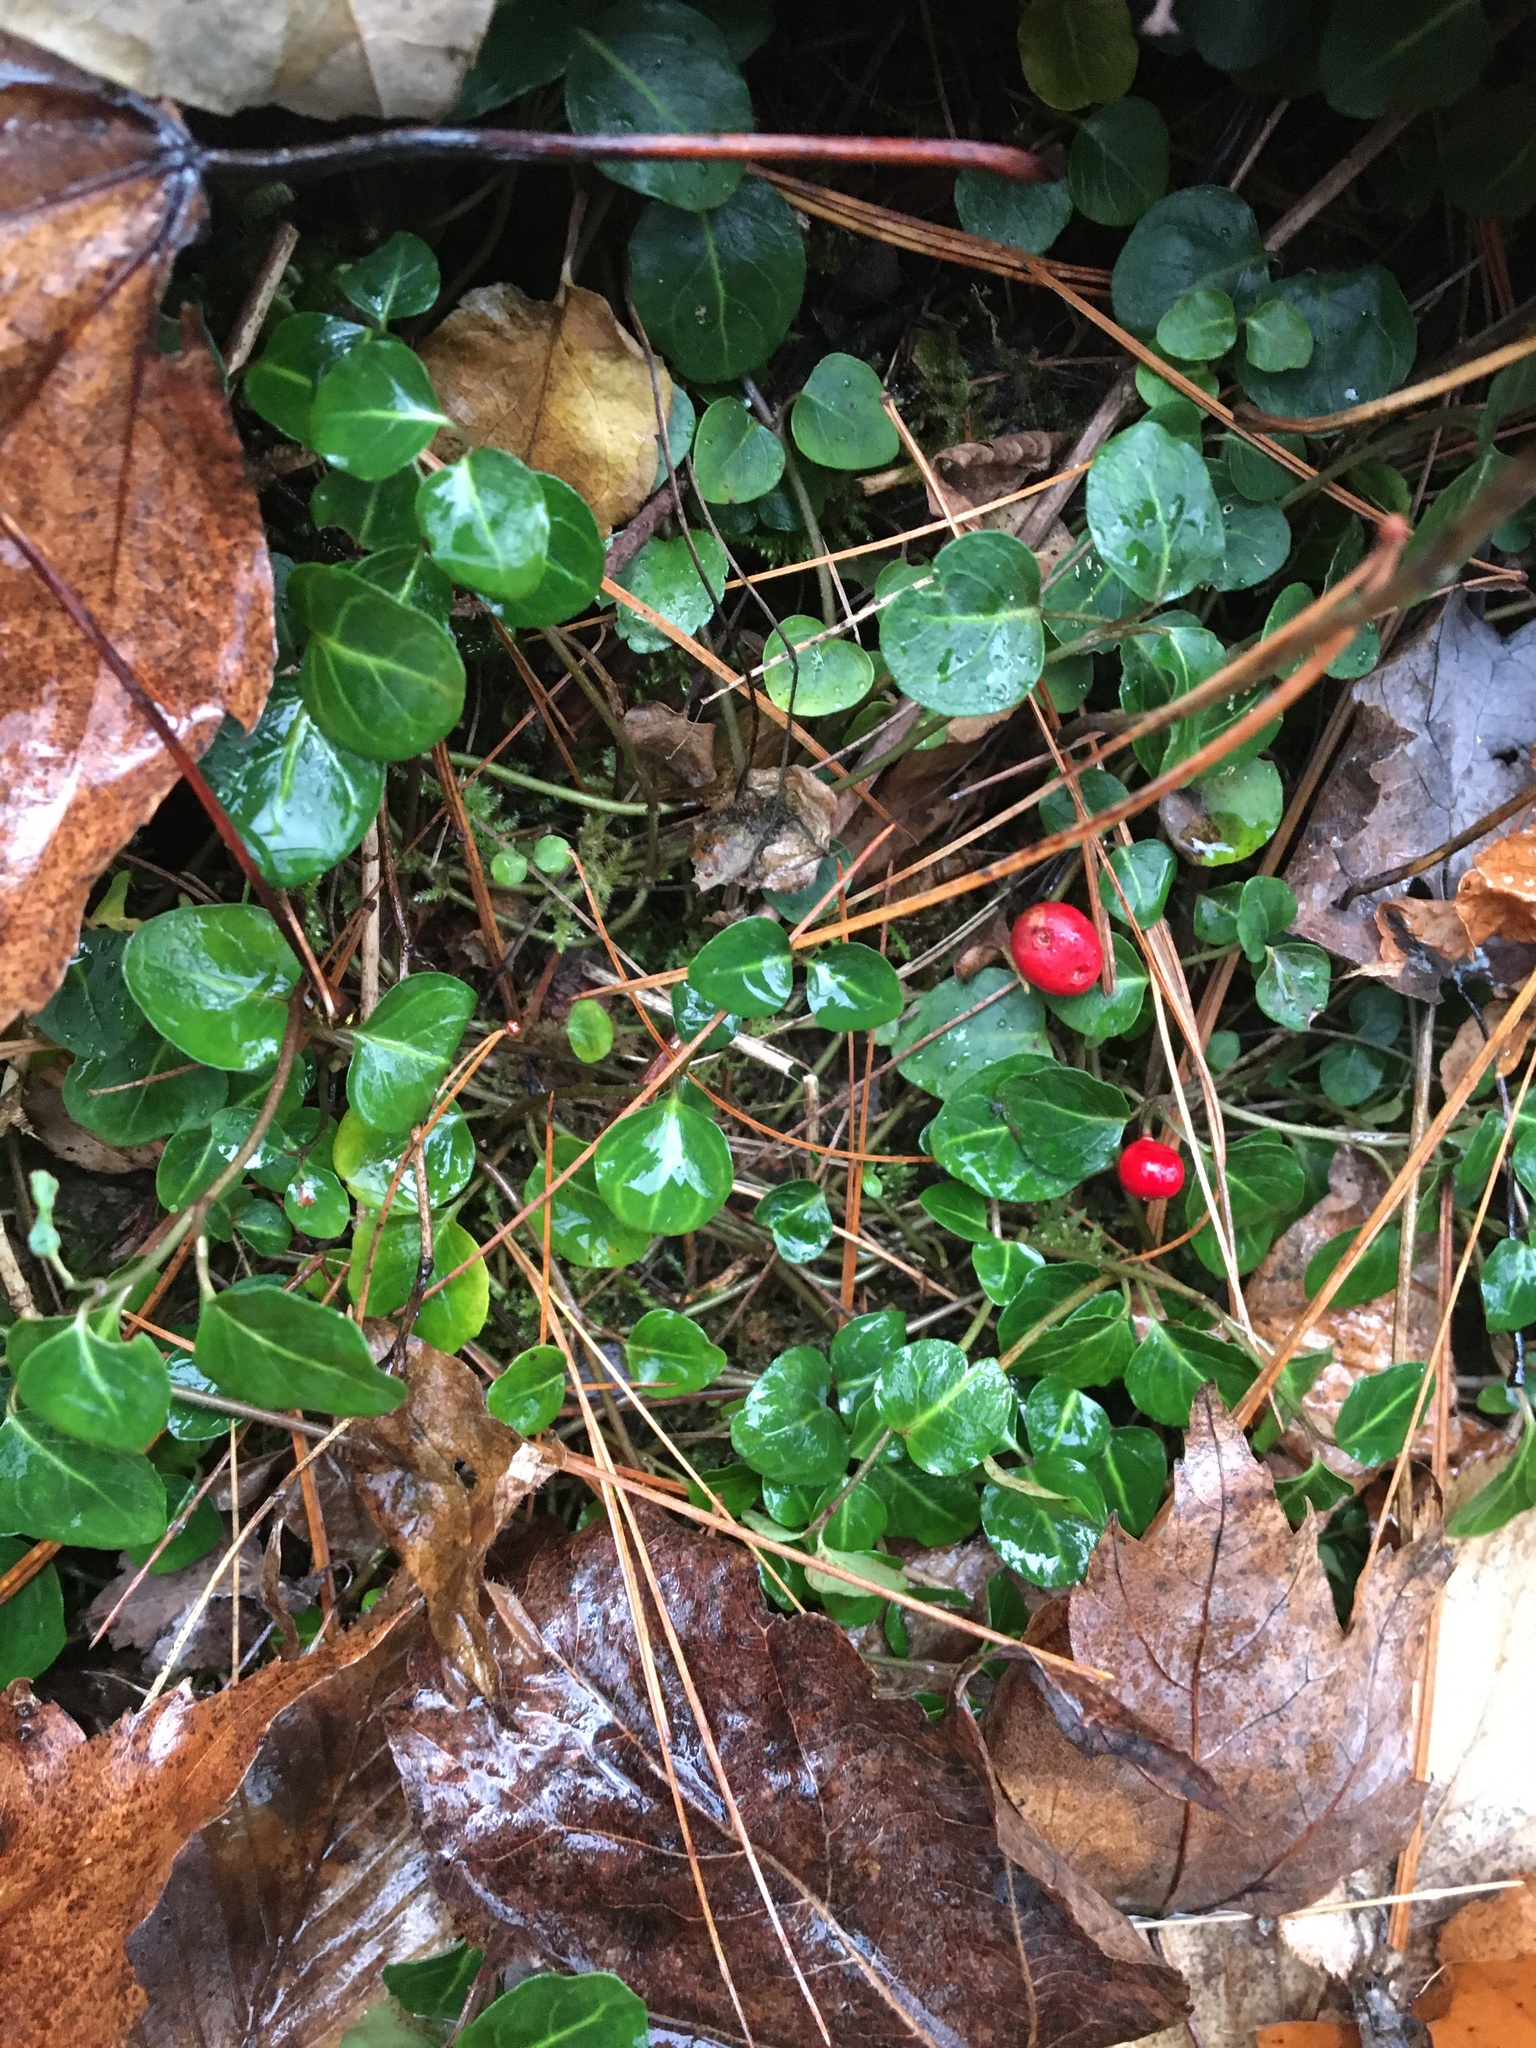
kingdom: Plantae
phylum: Tracheophyta
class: Magnoliopsida
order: Gentianales
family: Rubiaceae
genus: Mitchella
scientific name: Mitchella repens
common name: Partridge-berry
